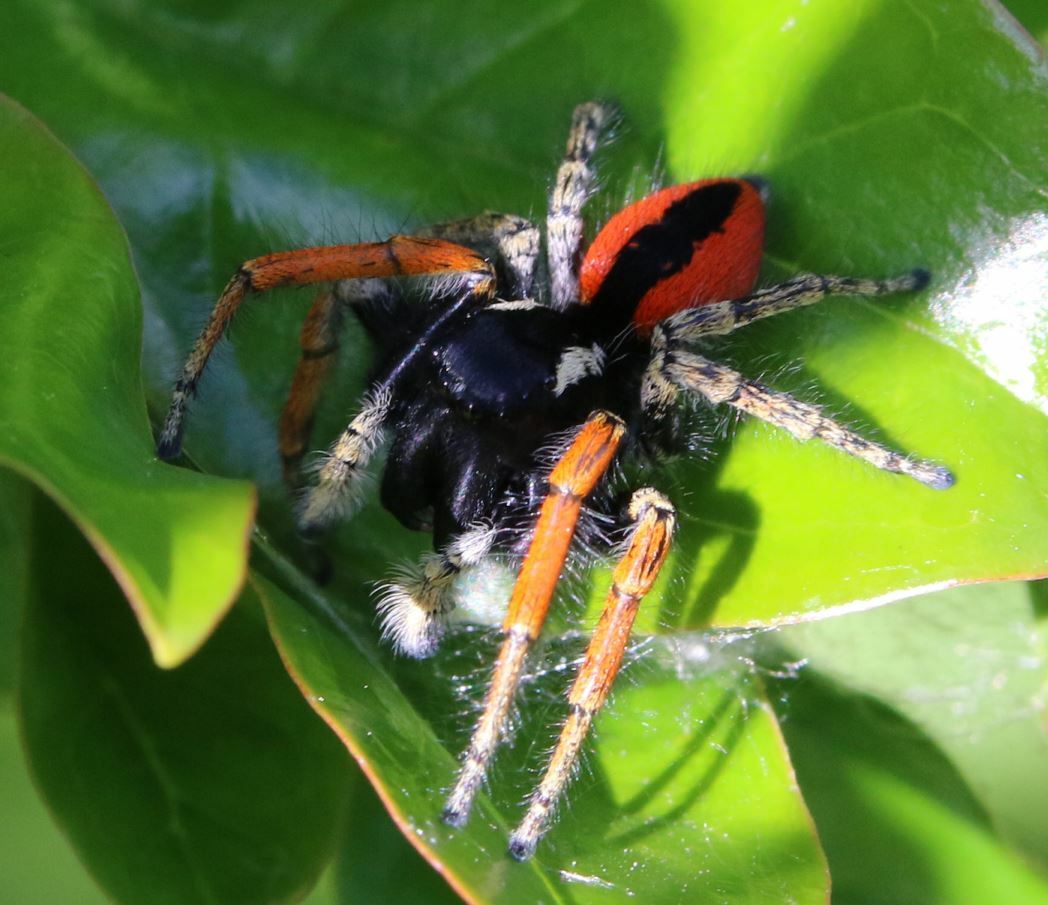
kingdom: Animalia
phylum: Arthropoda
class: Arachnida
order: Araneae
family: Salticidae
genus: Philaeus
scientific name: Philaeus chrysops
